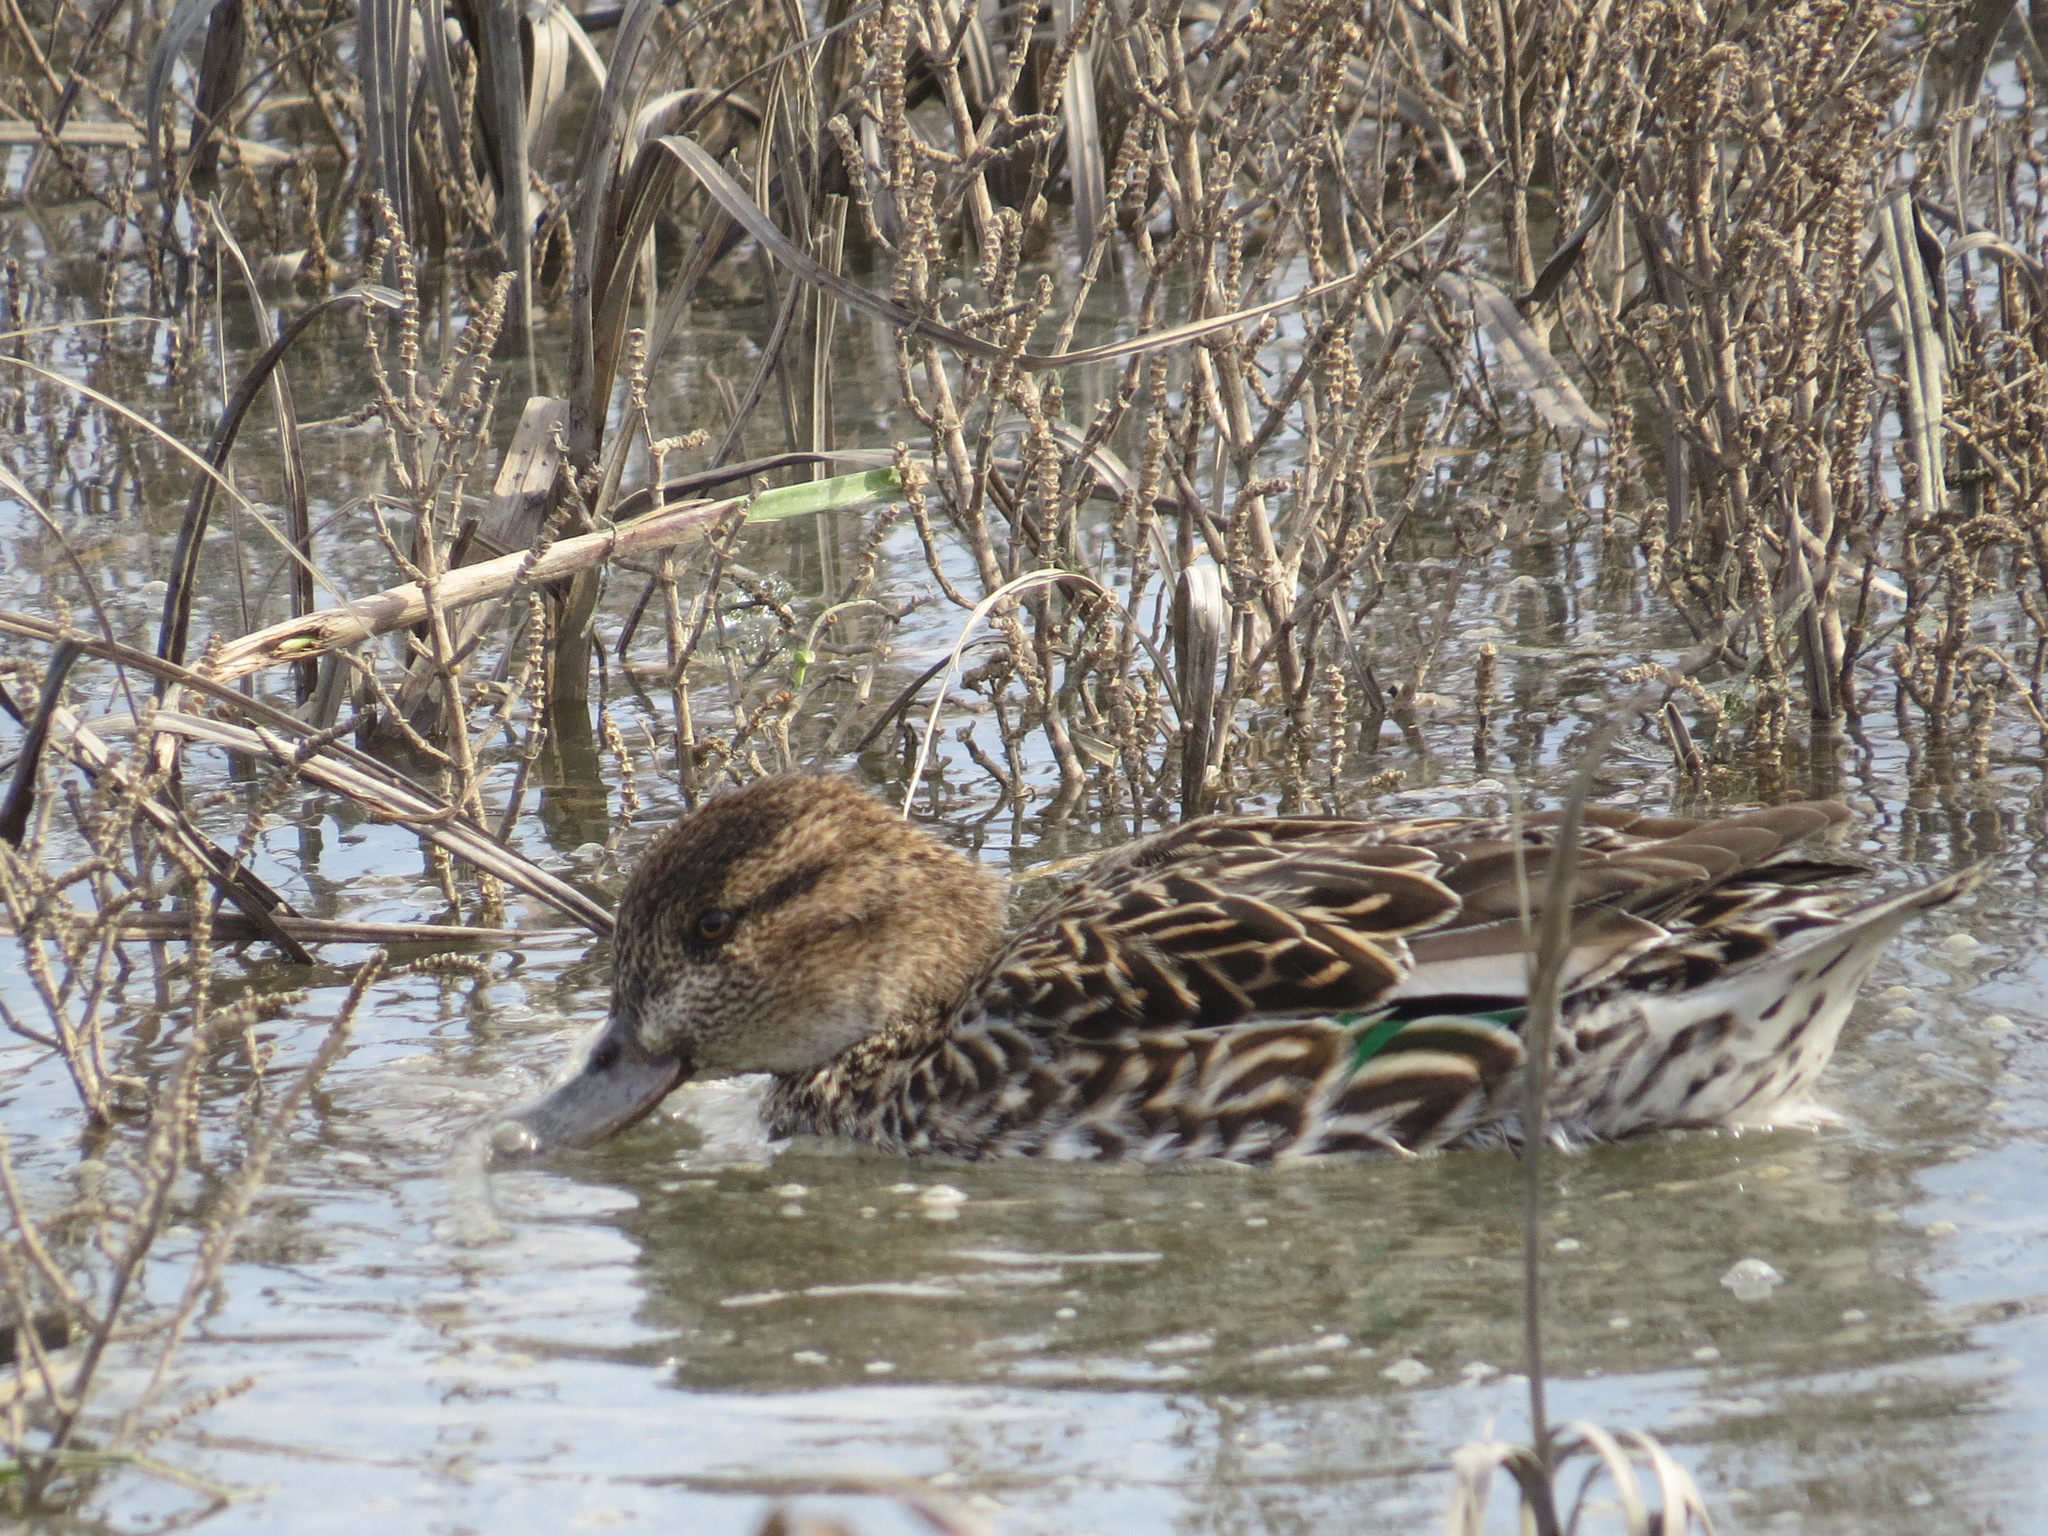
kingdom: Animalia
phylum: Chordata
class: Aves
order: Anseriformes
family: Anatidae
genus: Anas
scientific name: Anas crecca
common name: Eurasian teal
